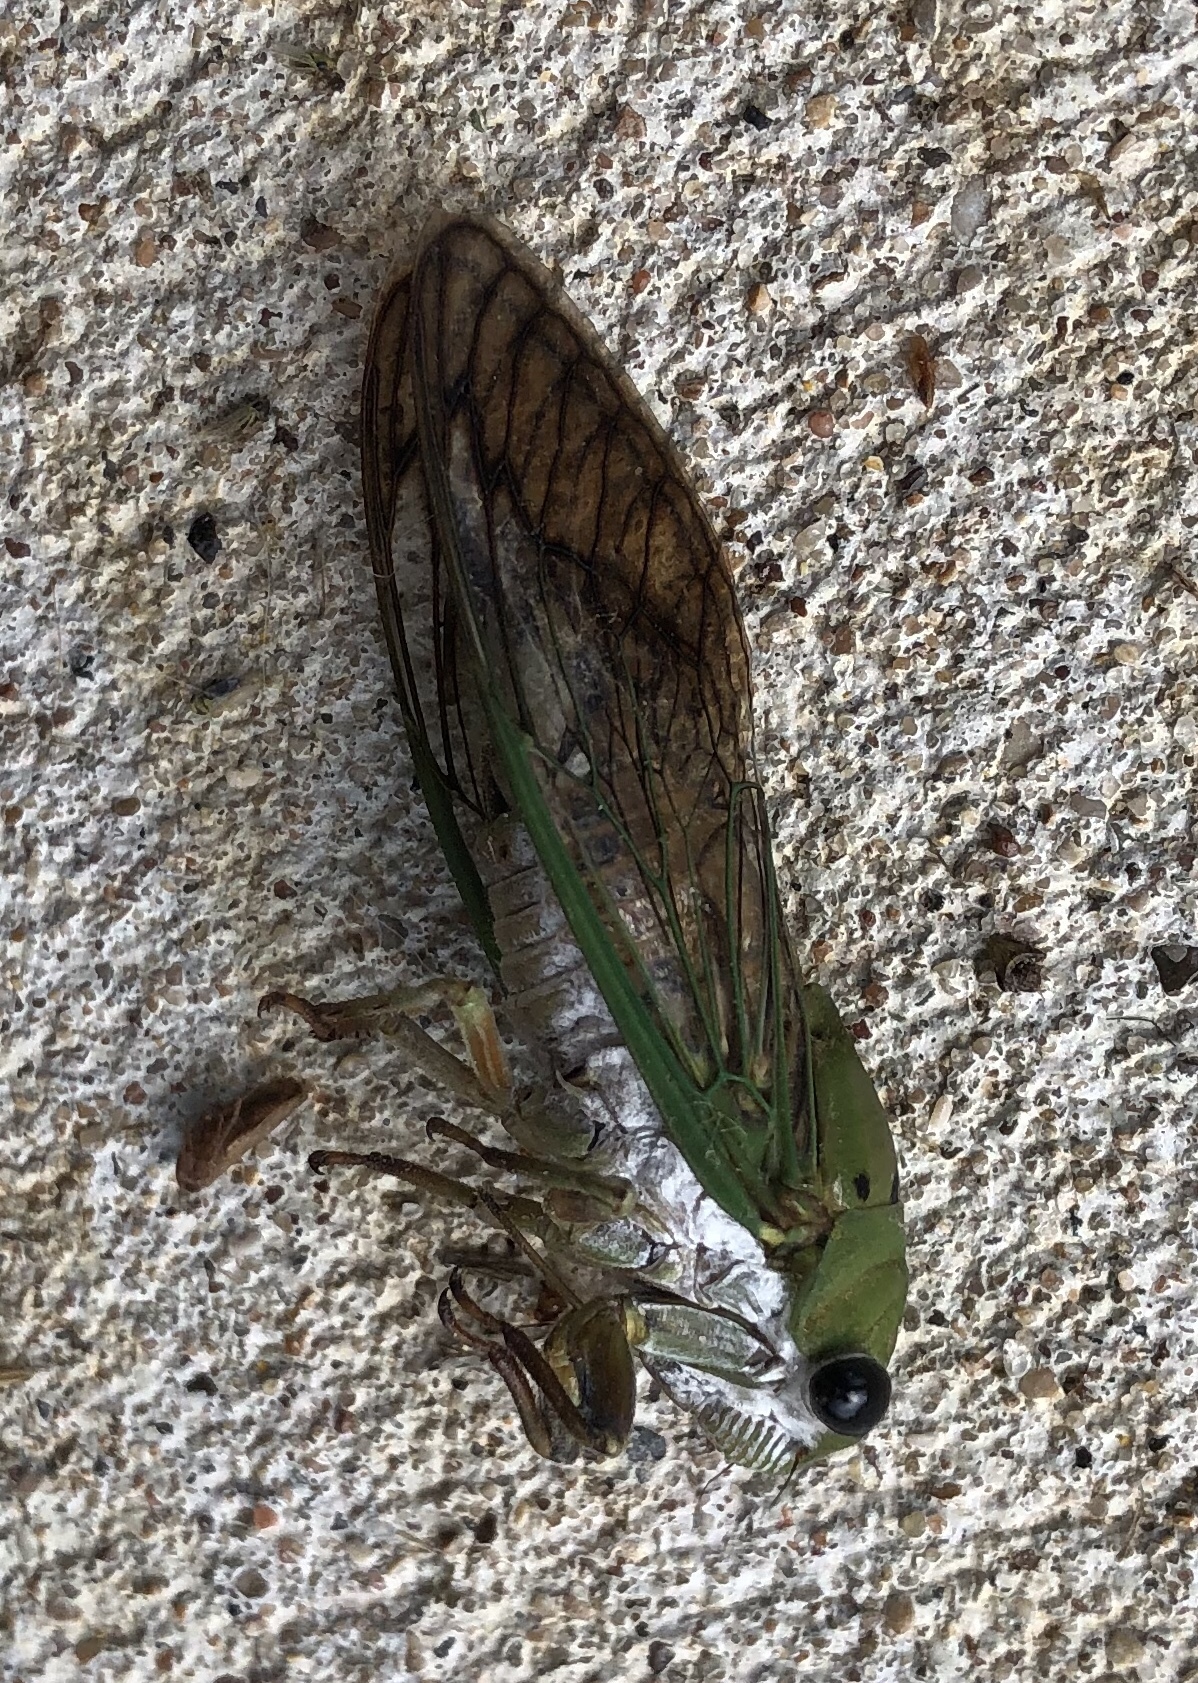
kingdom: Animalia
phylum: Arthropoda
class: Insecta
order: Hemiptera
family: Cicadidae
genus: Neotibicen
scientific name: Neotibicen superbus
